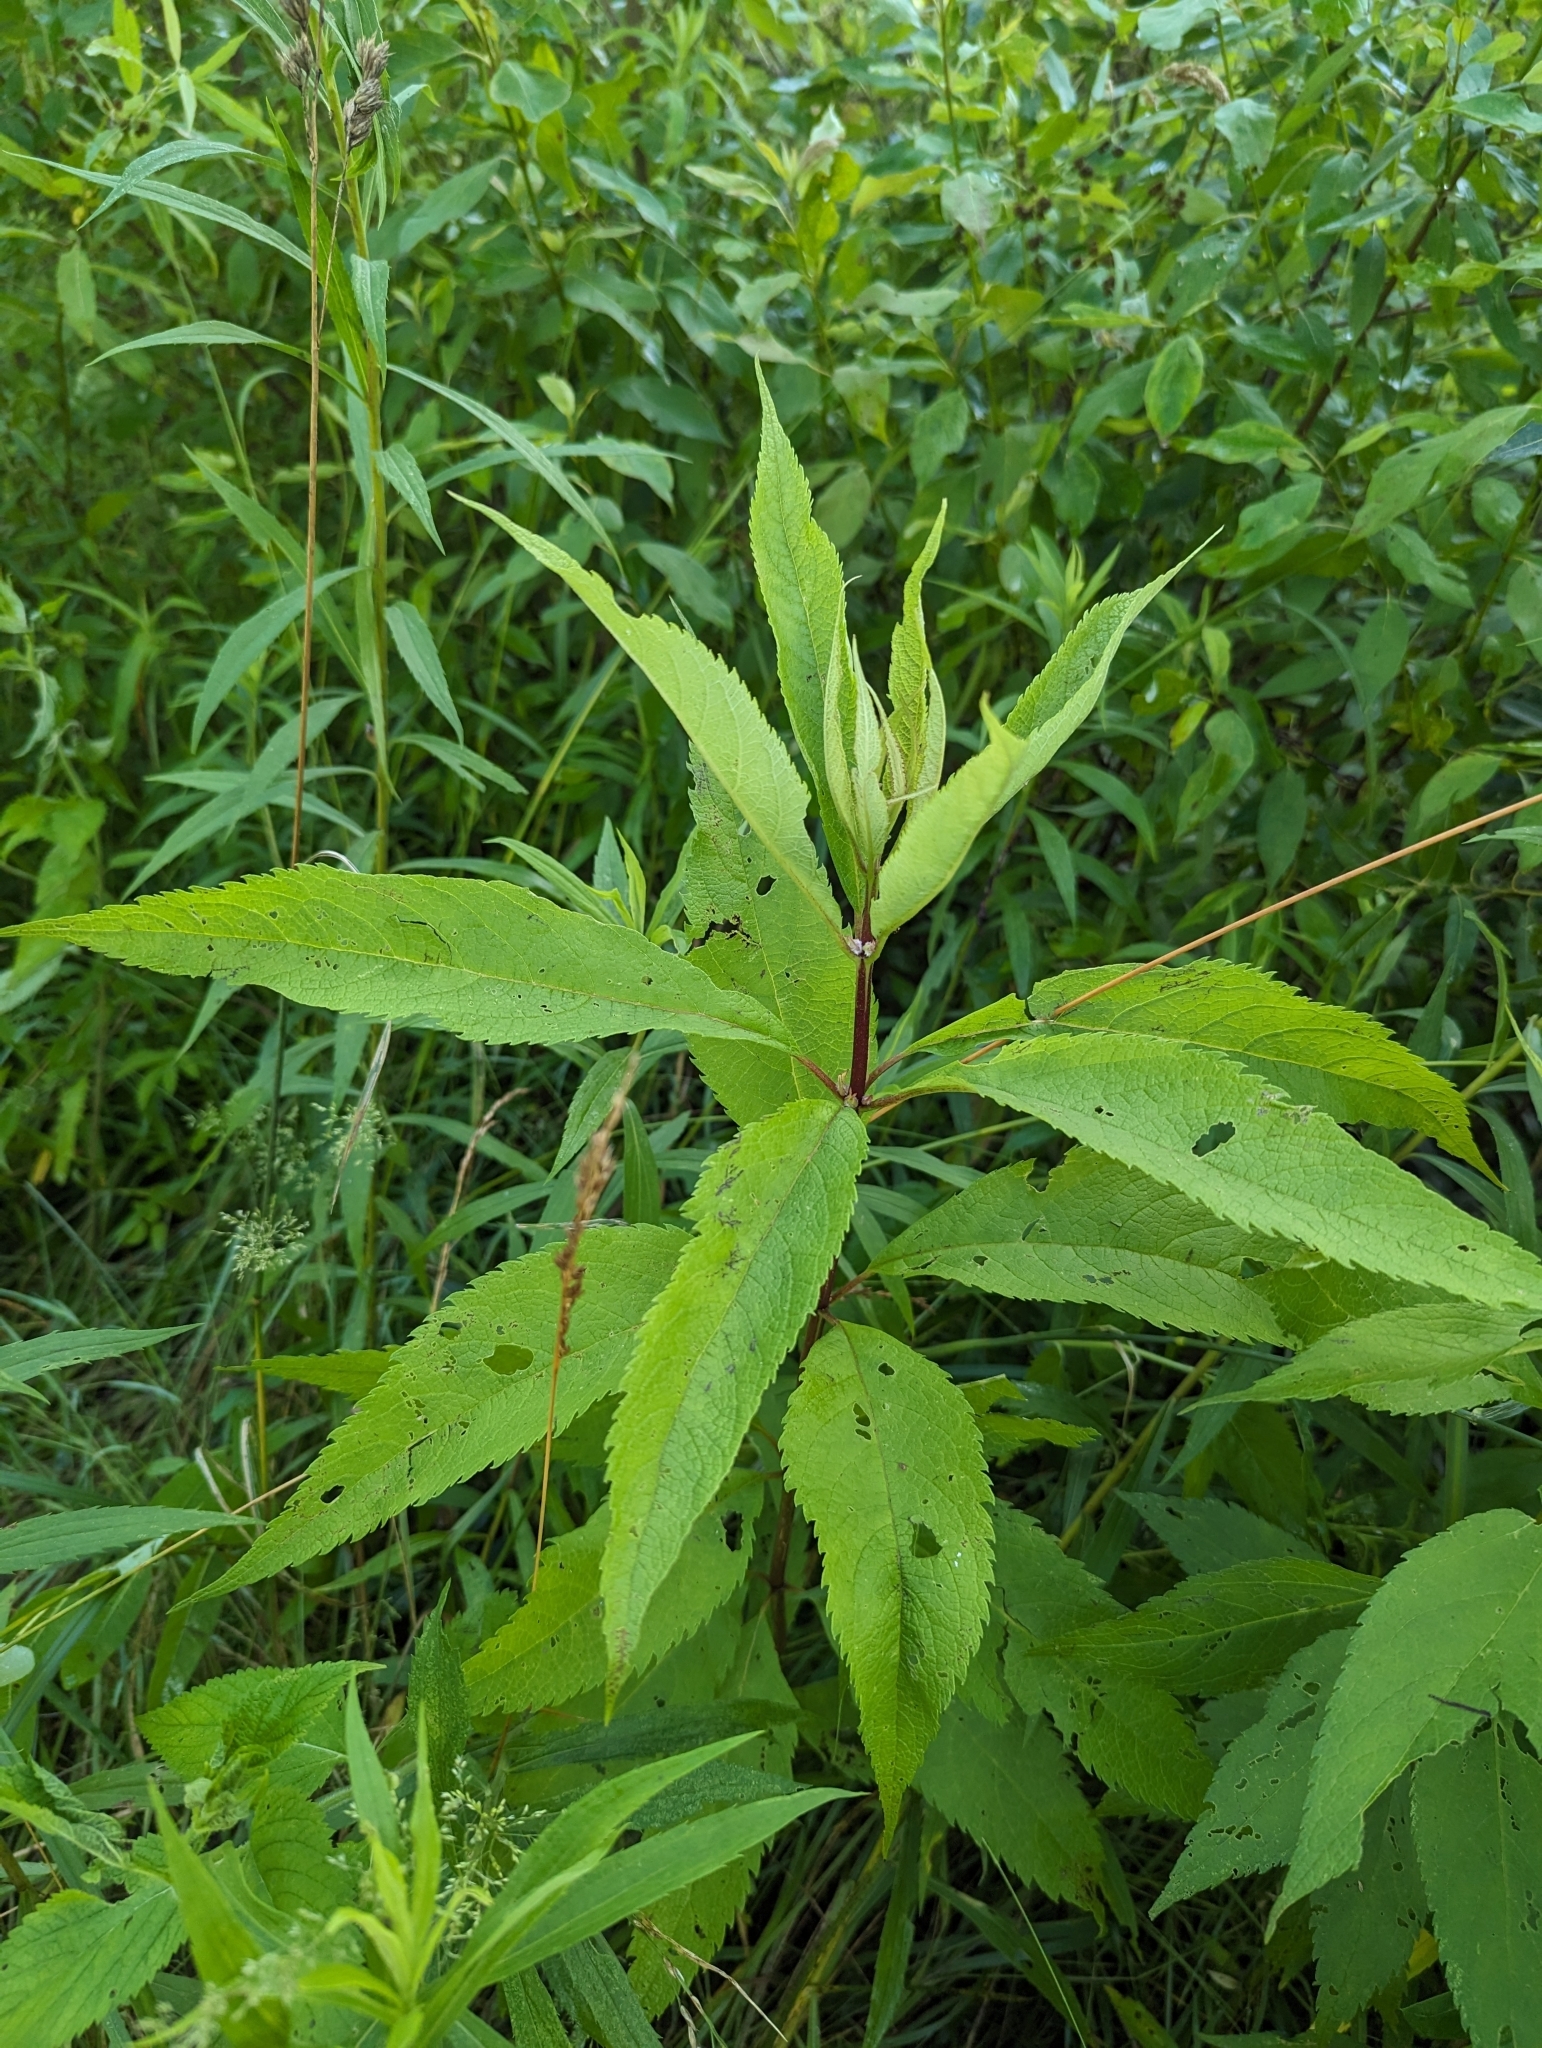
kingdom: Plantae
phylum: Tracheophyta
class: Magnoliopsida
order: Asterales
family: Asteraceae
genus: Eutrochium
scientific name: Eutrochium maculatum
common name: Spotted joe pye weed
